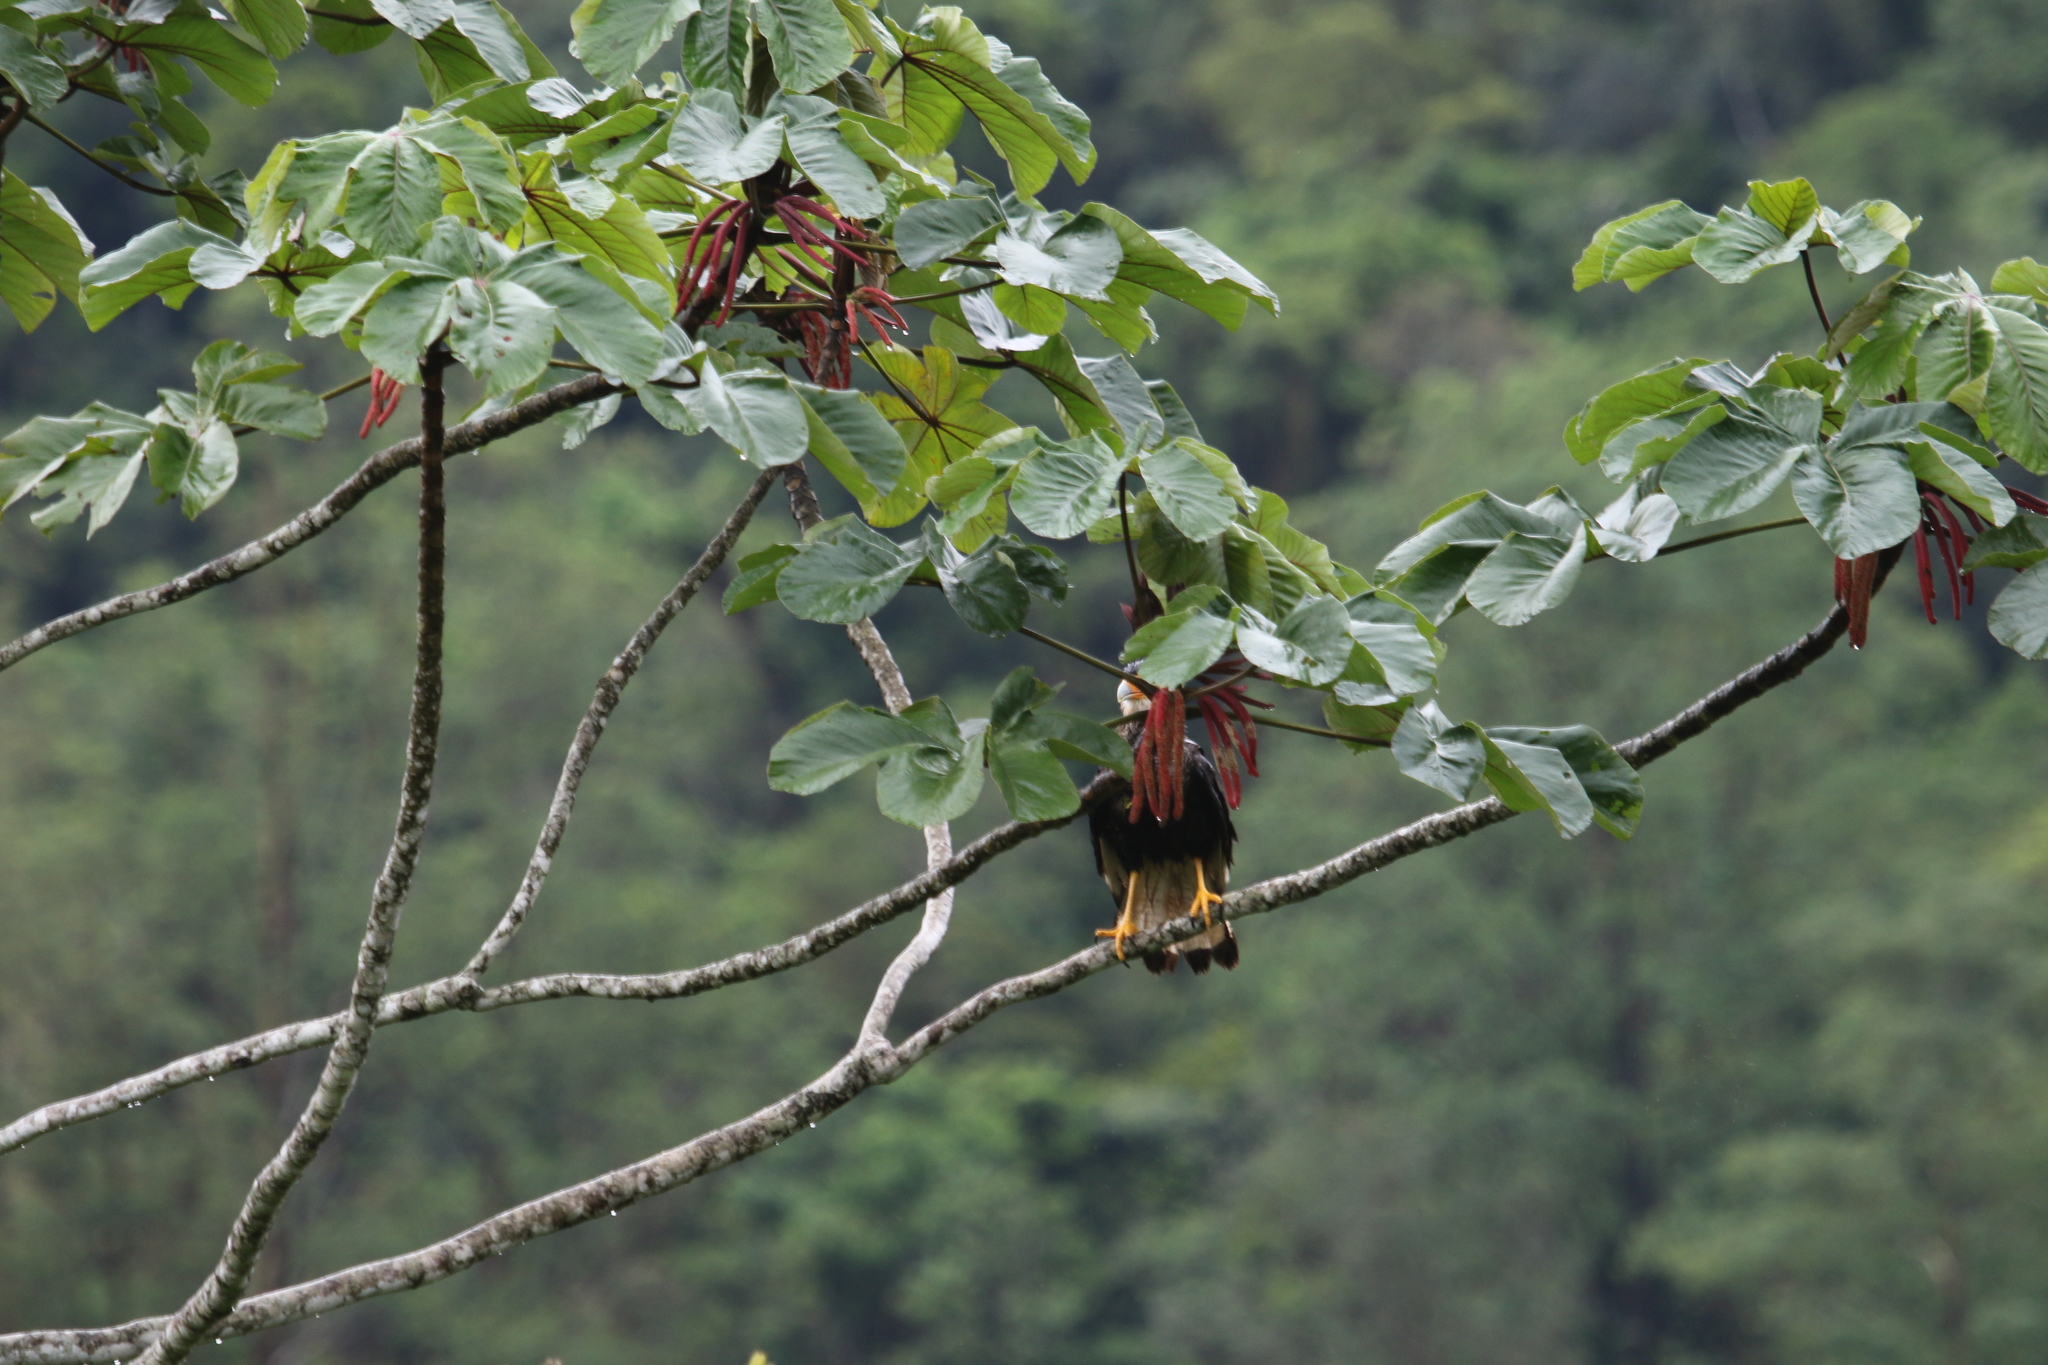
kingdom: Animalia
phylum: Chordata
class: Aves
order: Falconiformes
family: Falconidae
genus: Caracara
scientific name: Caracara plancus
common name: Southern caracara
